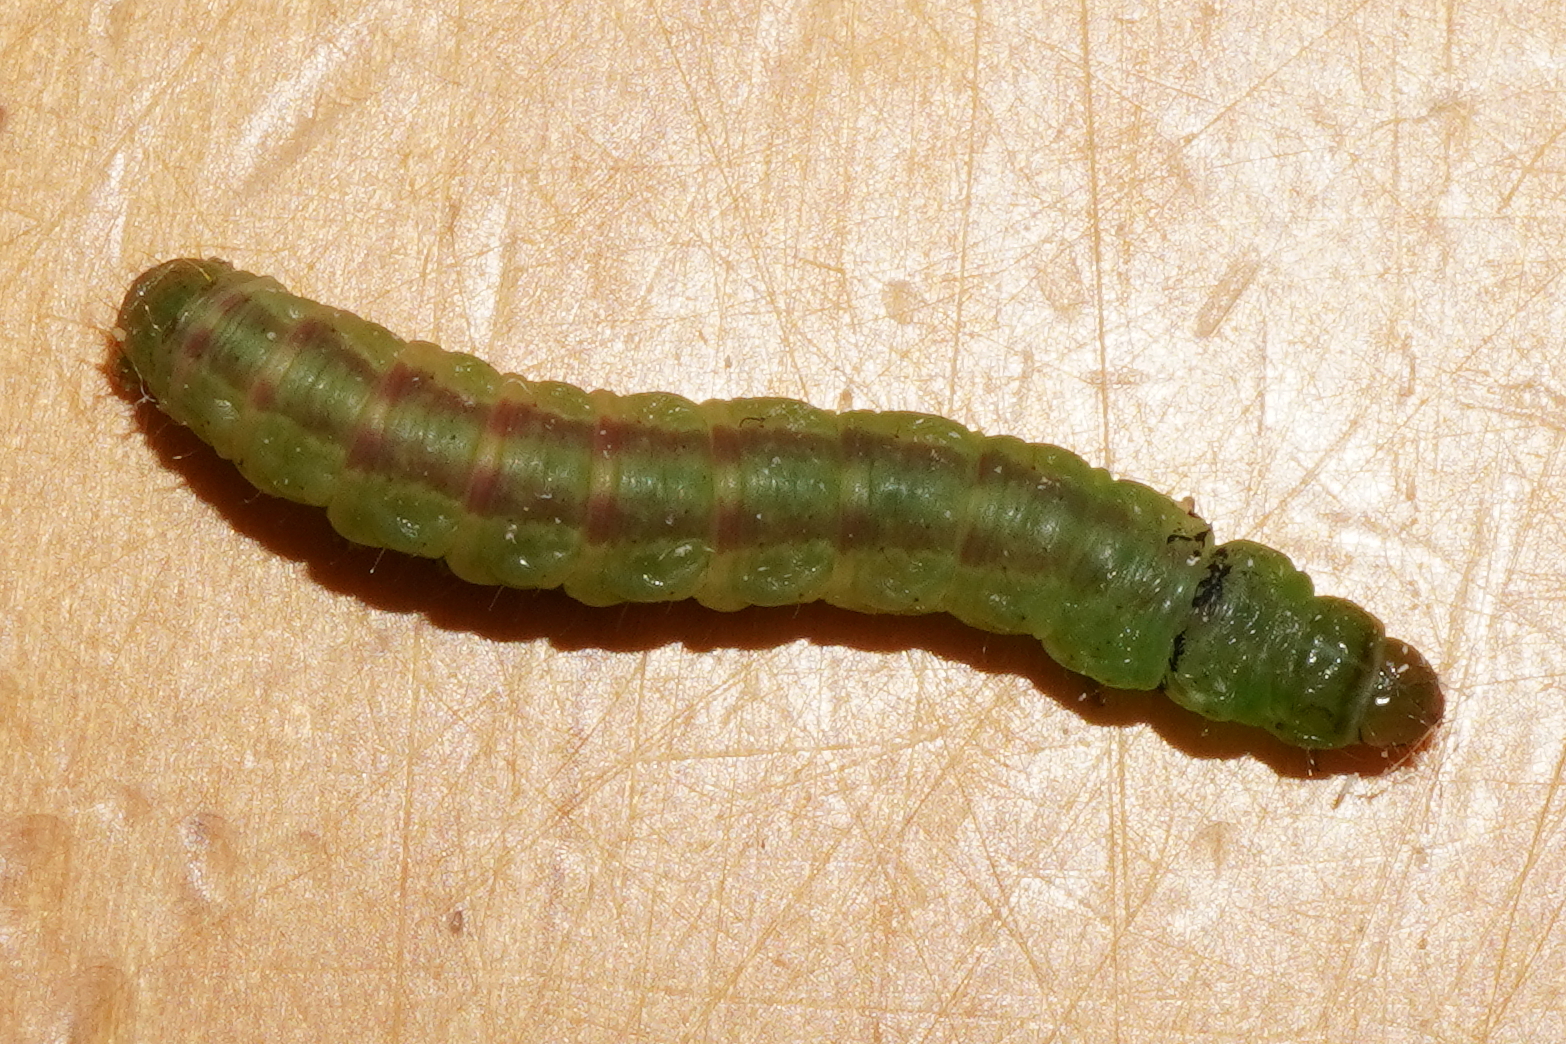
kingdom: Animalia
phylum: Arthropoda
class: Insecta
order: Lepidoptera
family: Noctuidae
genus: Mesapamea
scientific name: Mesapamea secalis
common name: Common rustic
